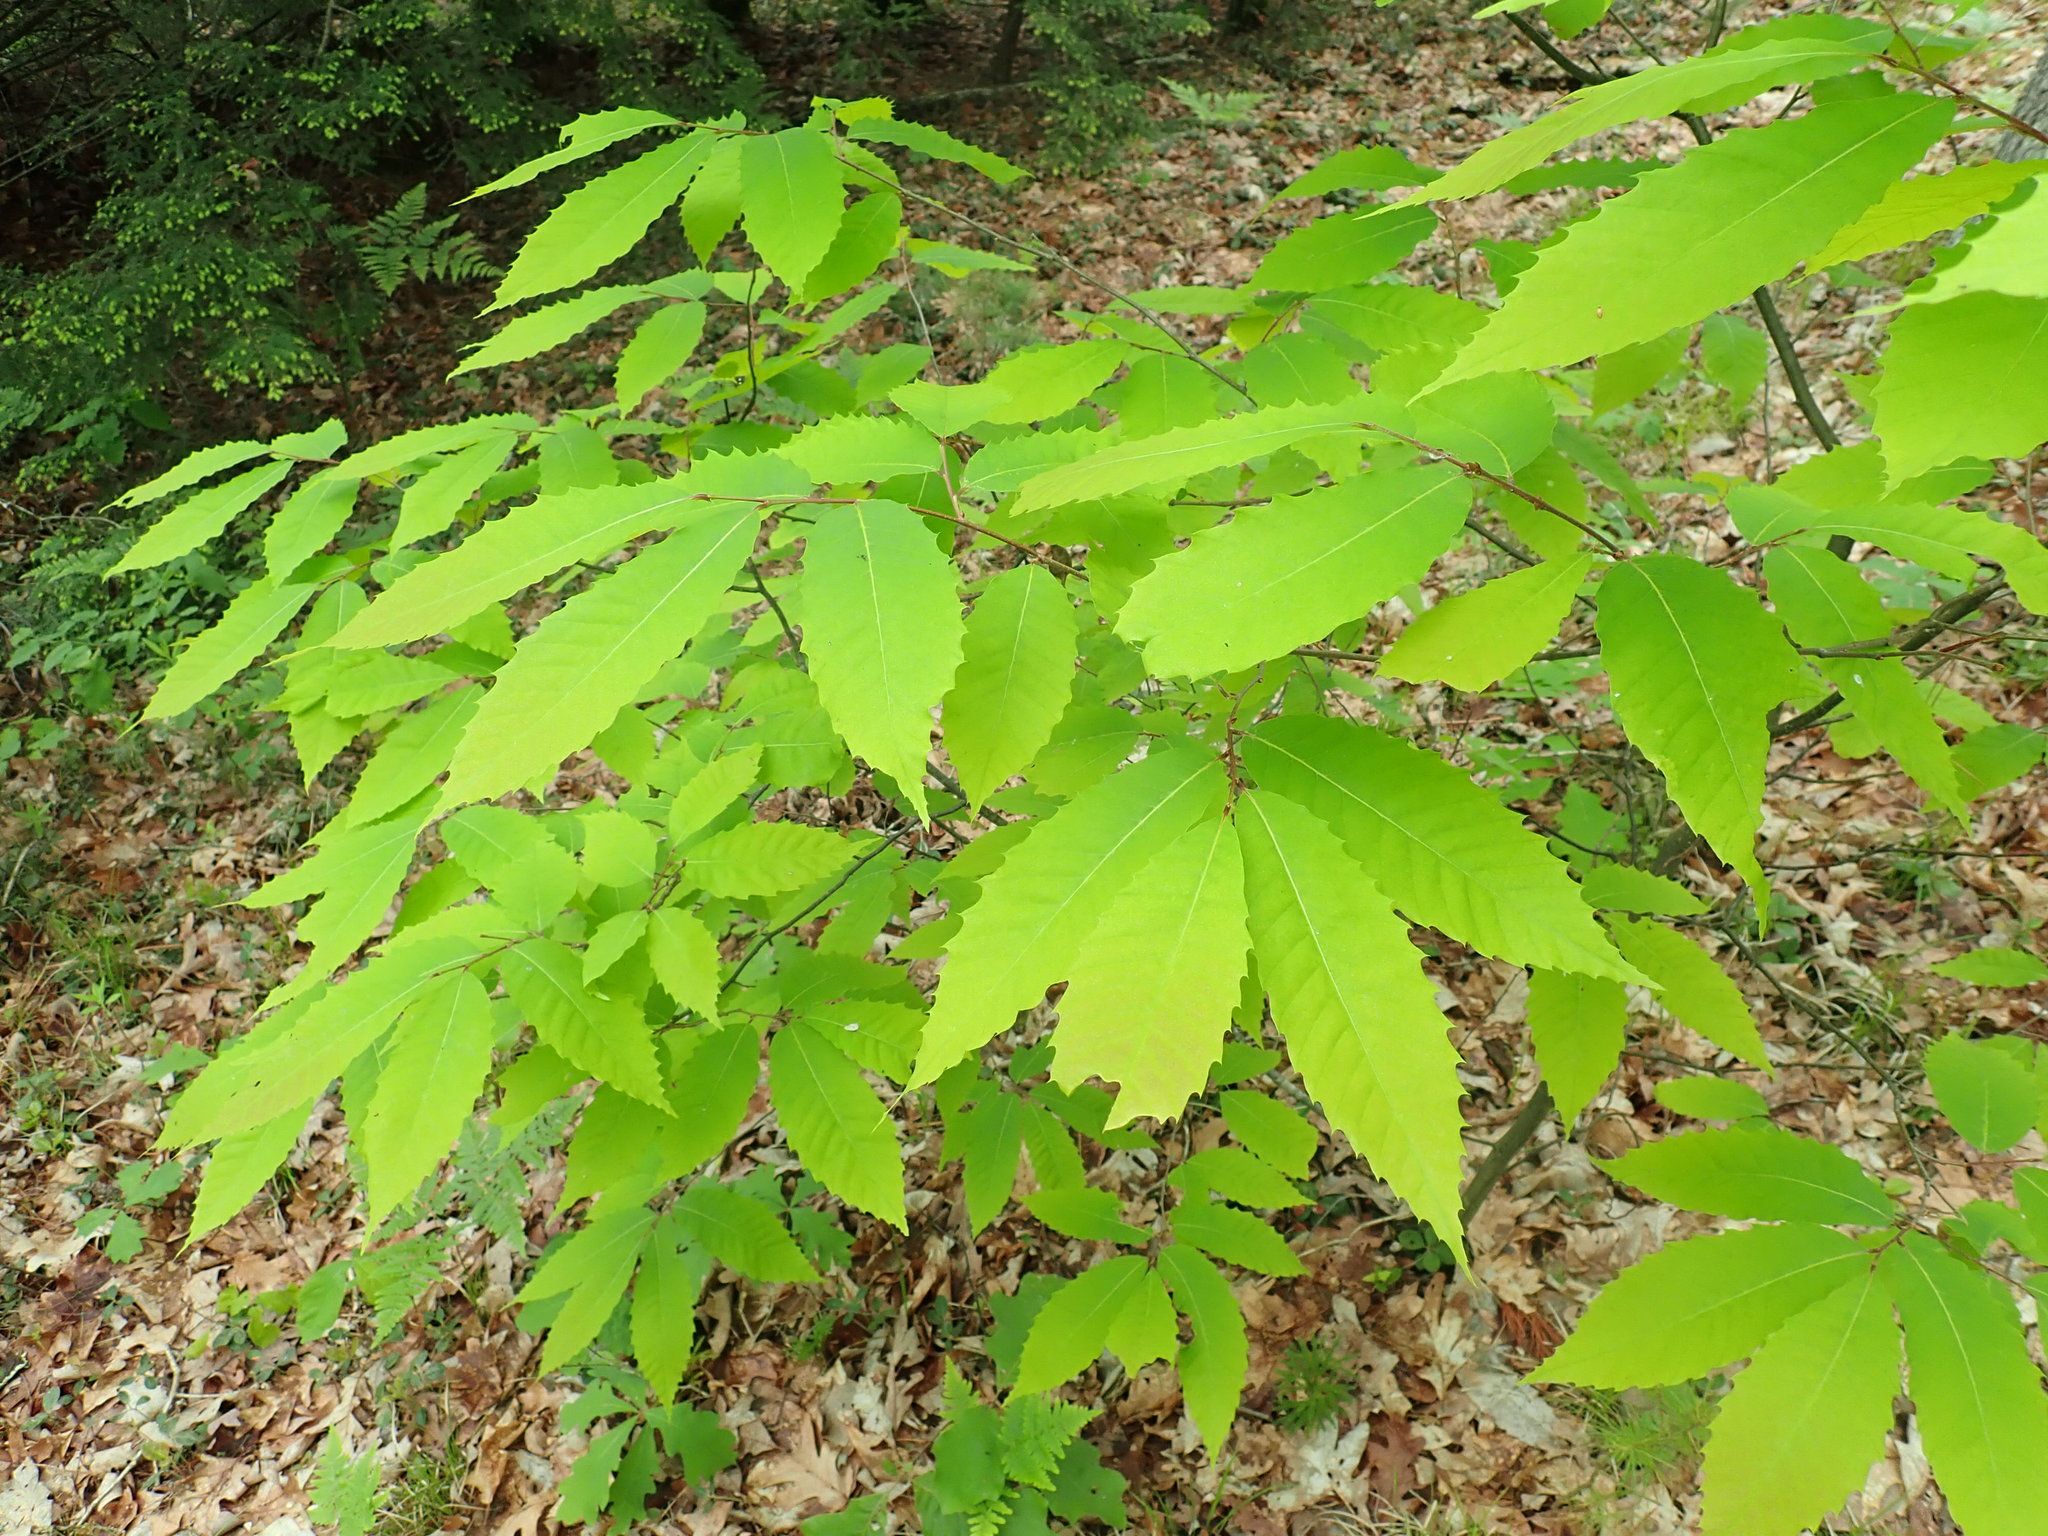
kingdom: Plantae
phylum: Tracheophyta
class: Magnoliopsida
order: Fagales
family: Fagaceae
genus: Castanea
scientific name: Castanea dentata
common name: American chestnut
